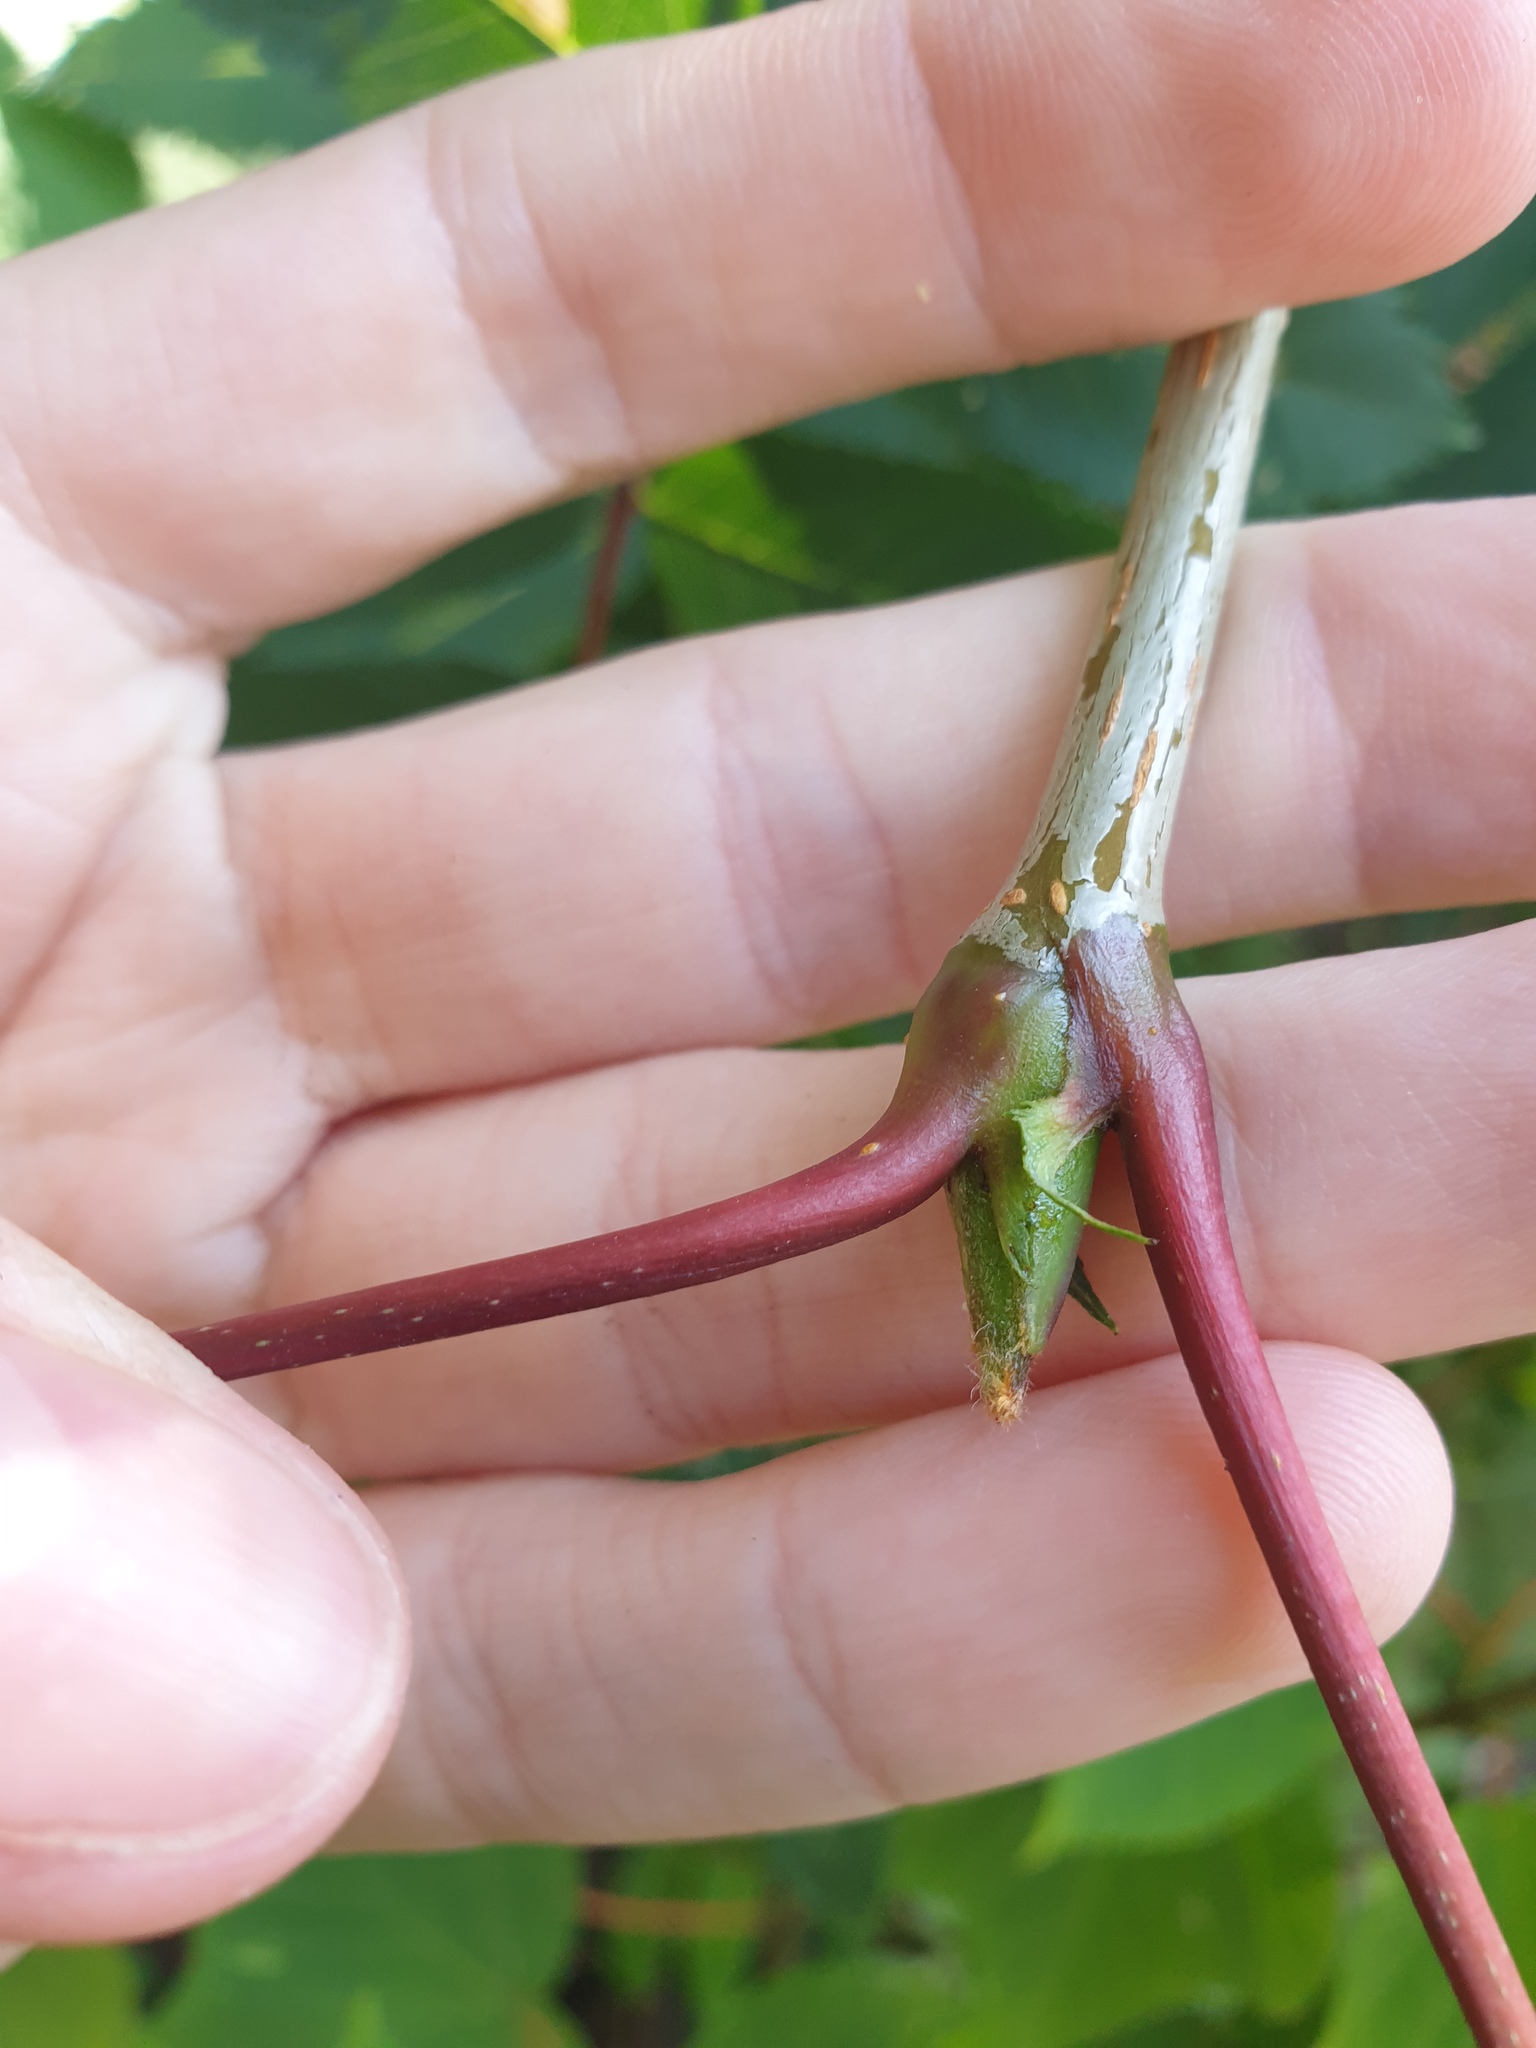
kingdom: Plantae
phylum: Tracheophyta
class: Magnoliopsida
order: Rosales
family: Rosaceae
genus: Sorbus
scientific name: Sorbus decora
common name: Northern mountain-ash
